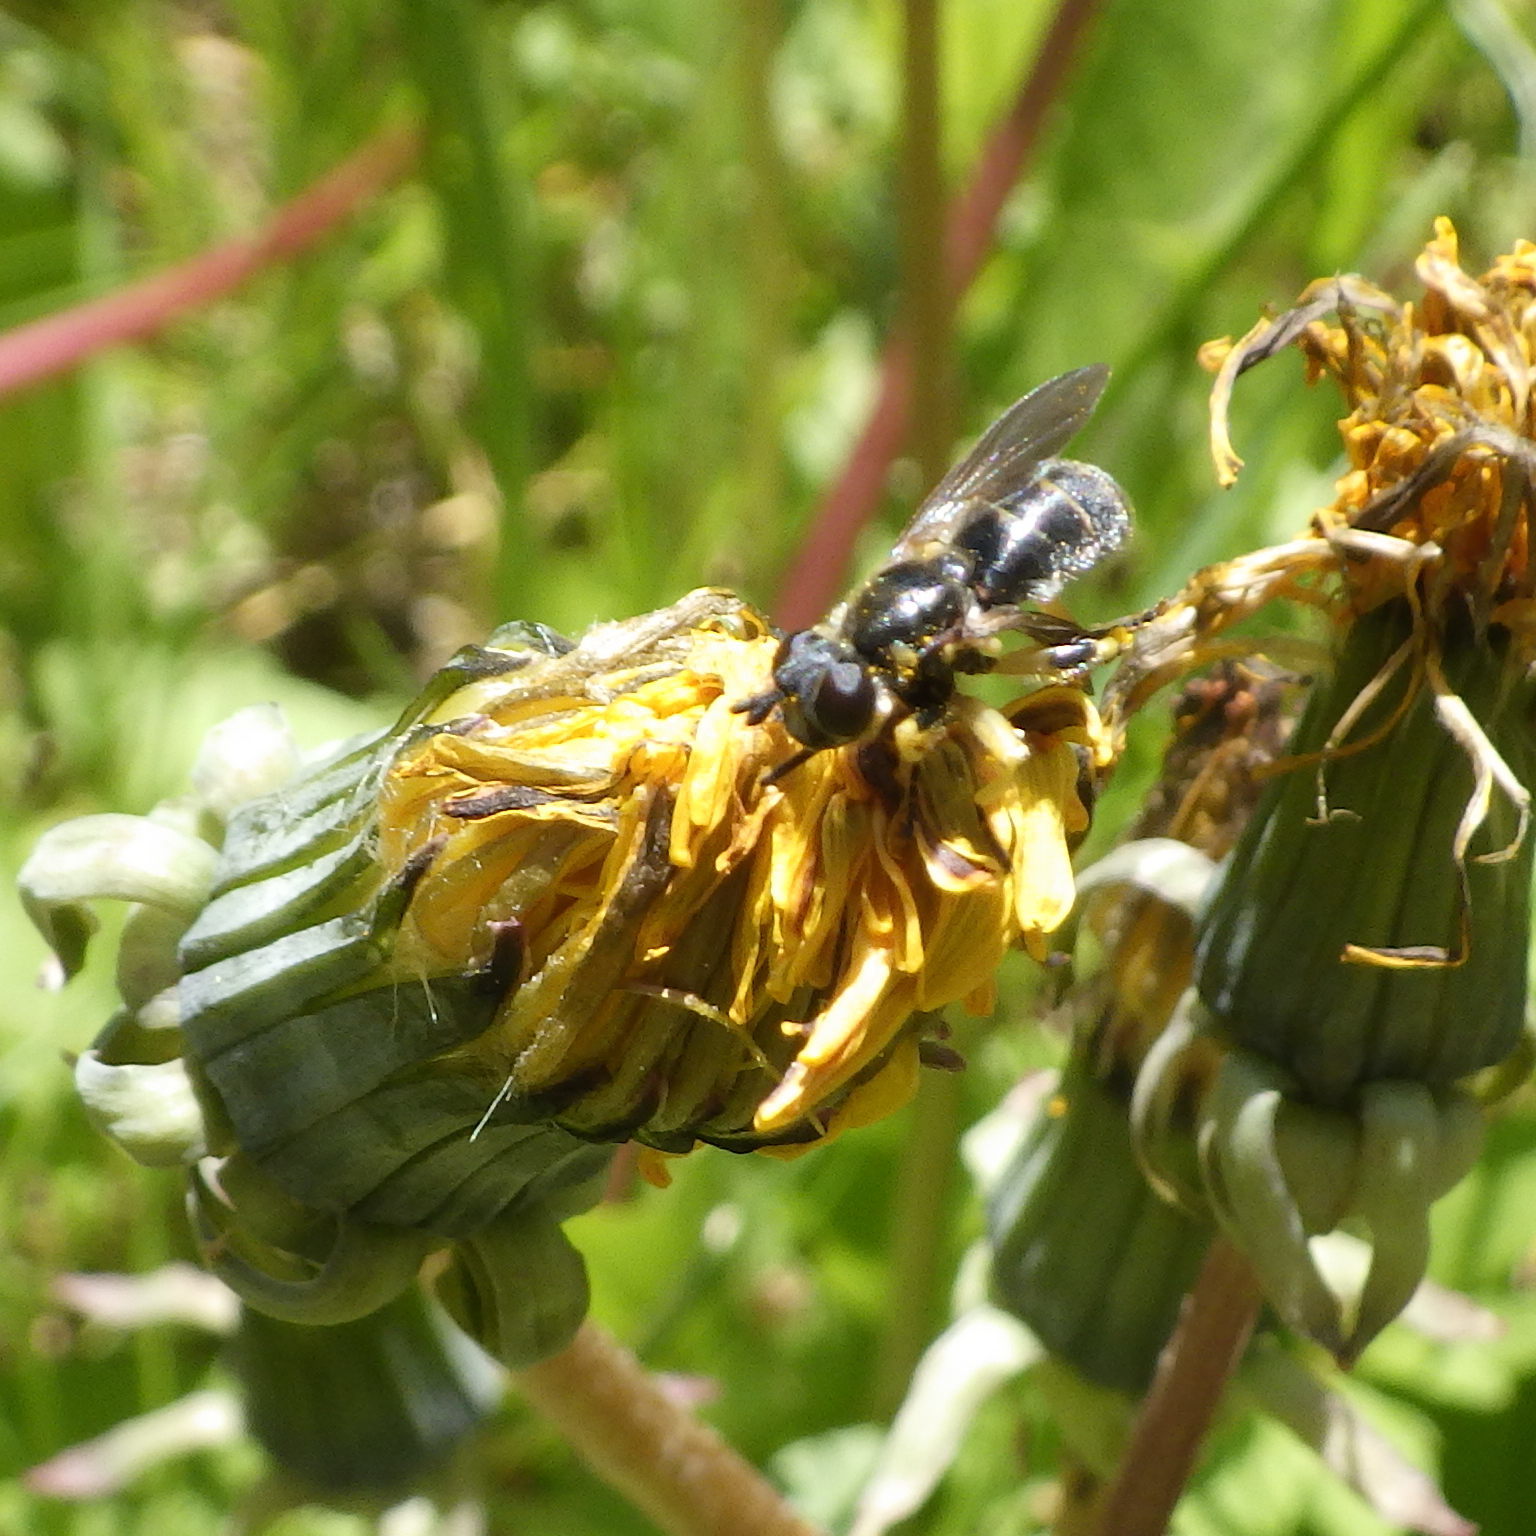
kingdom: Animalia
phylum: Arthropoda
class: Insecta
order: Diptera
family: Conopidae
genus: Dalmannia
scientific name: Dalmannia nigriceps
